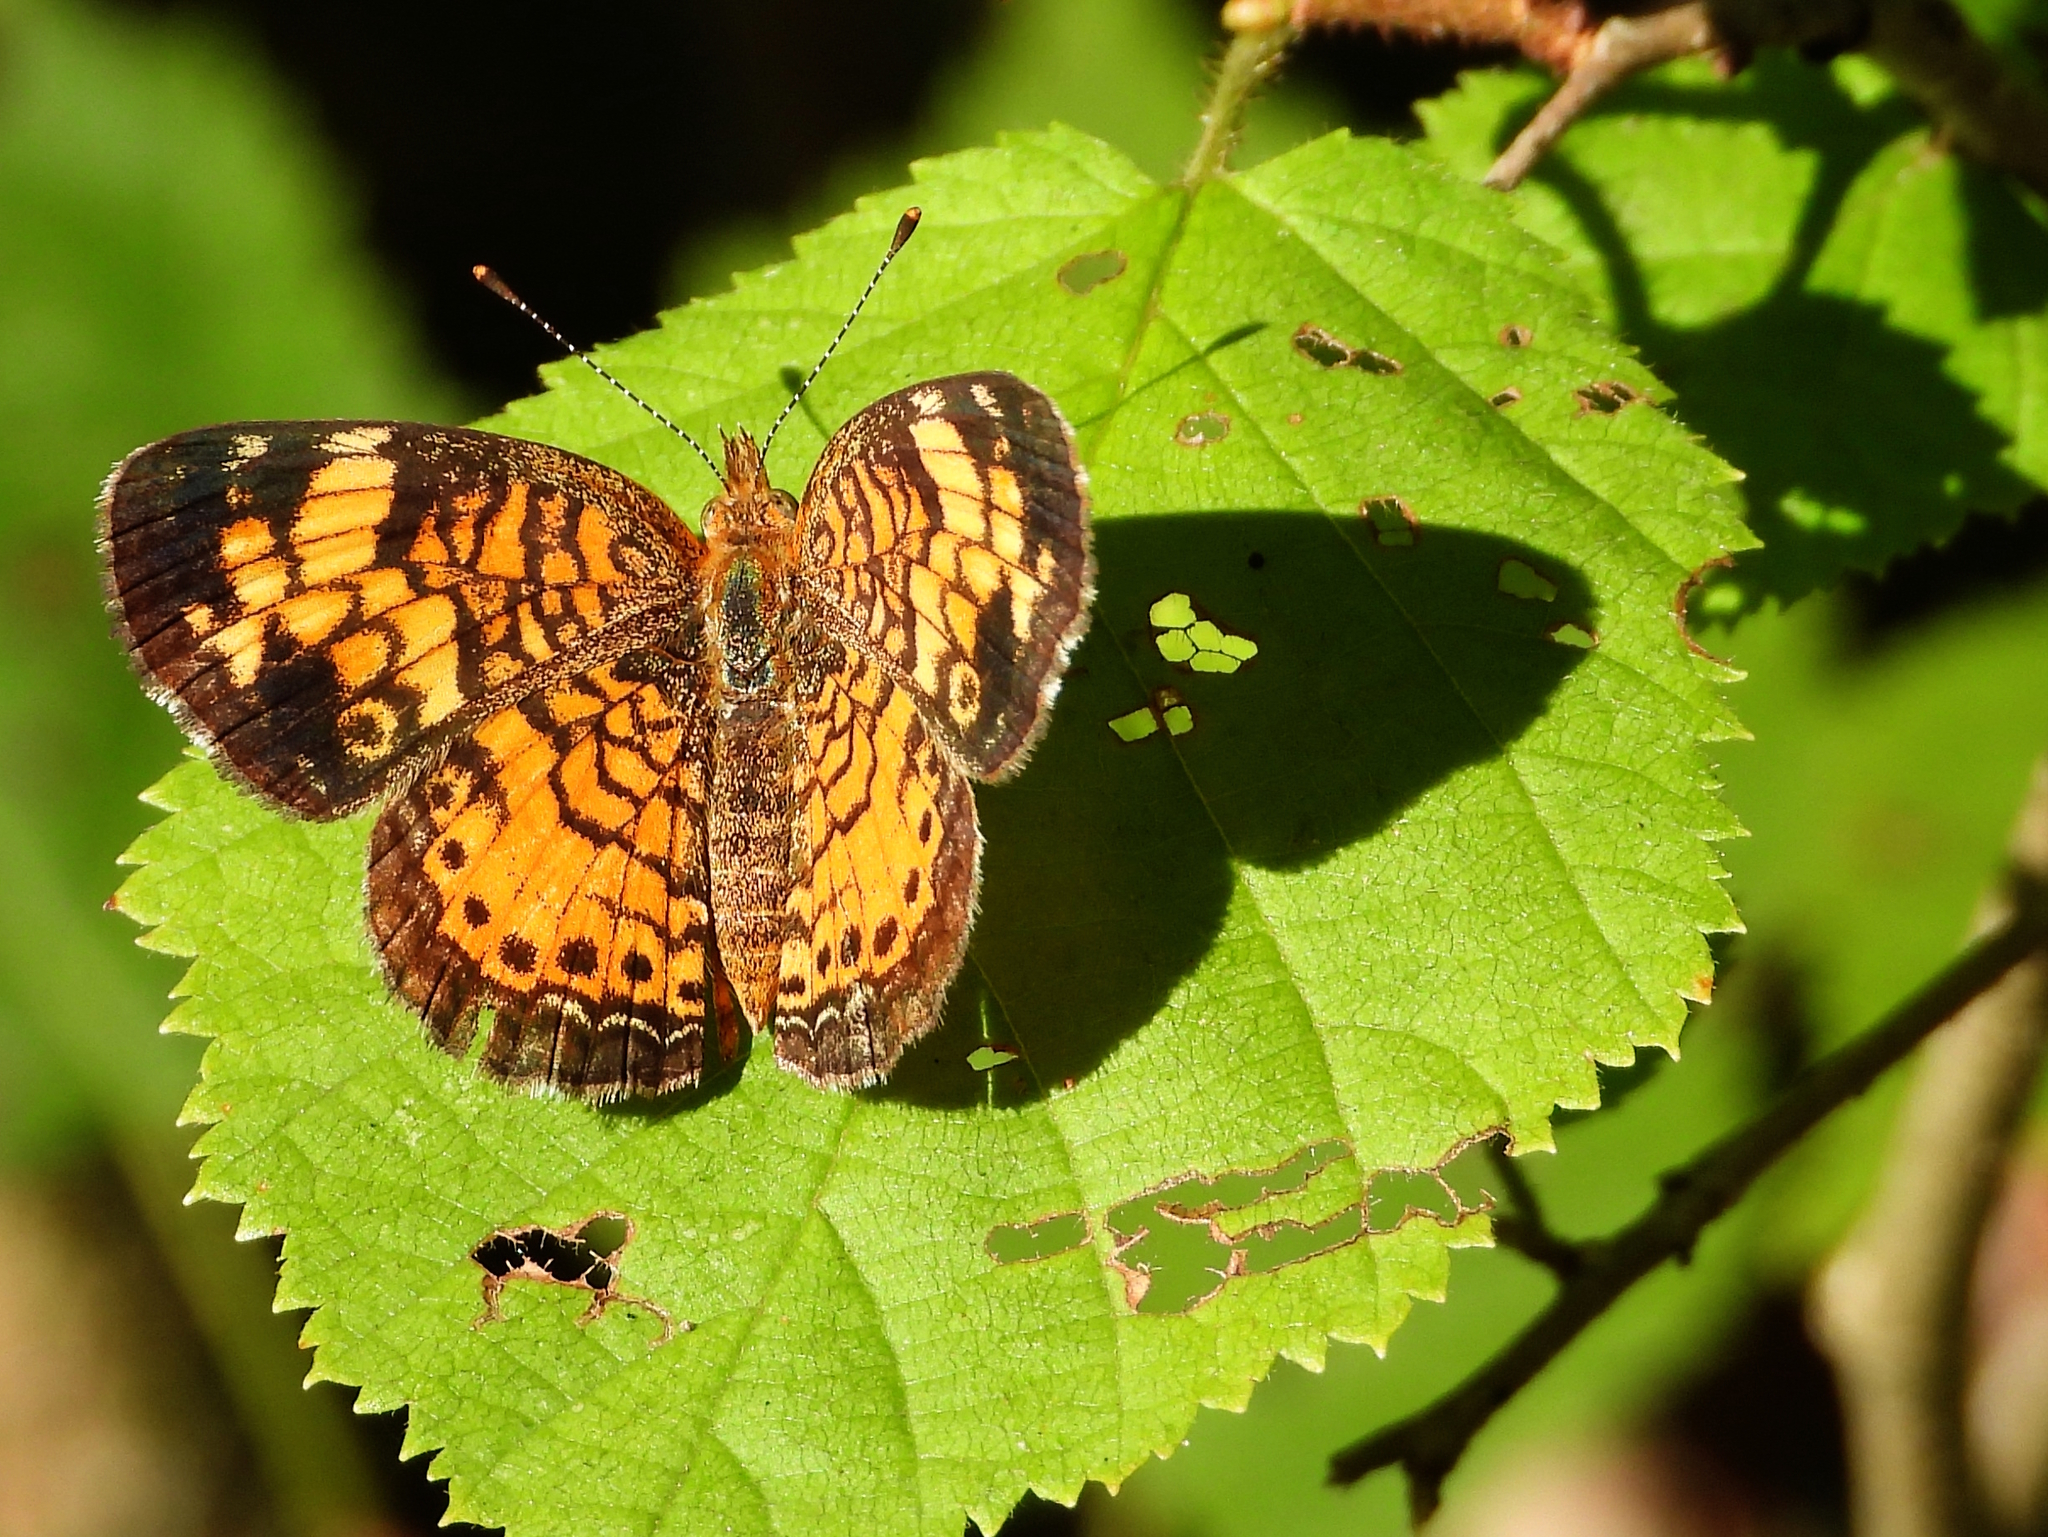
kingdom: Animalia
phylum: Arthropoda
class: Insecta
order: Lepidoptera
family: Nymphalidae
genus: Phyciodes
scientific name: Phyciodes tharos
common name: Pearl crescent
